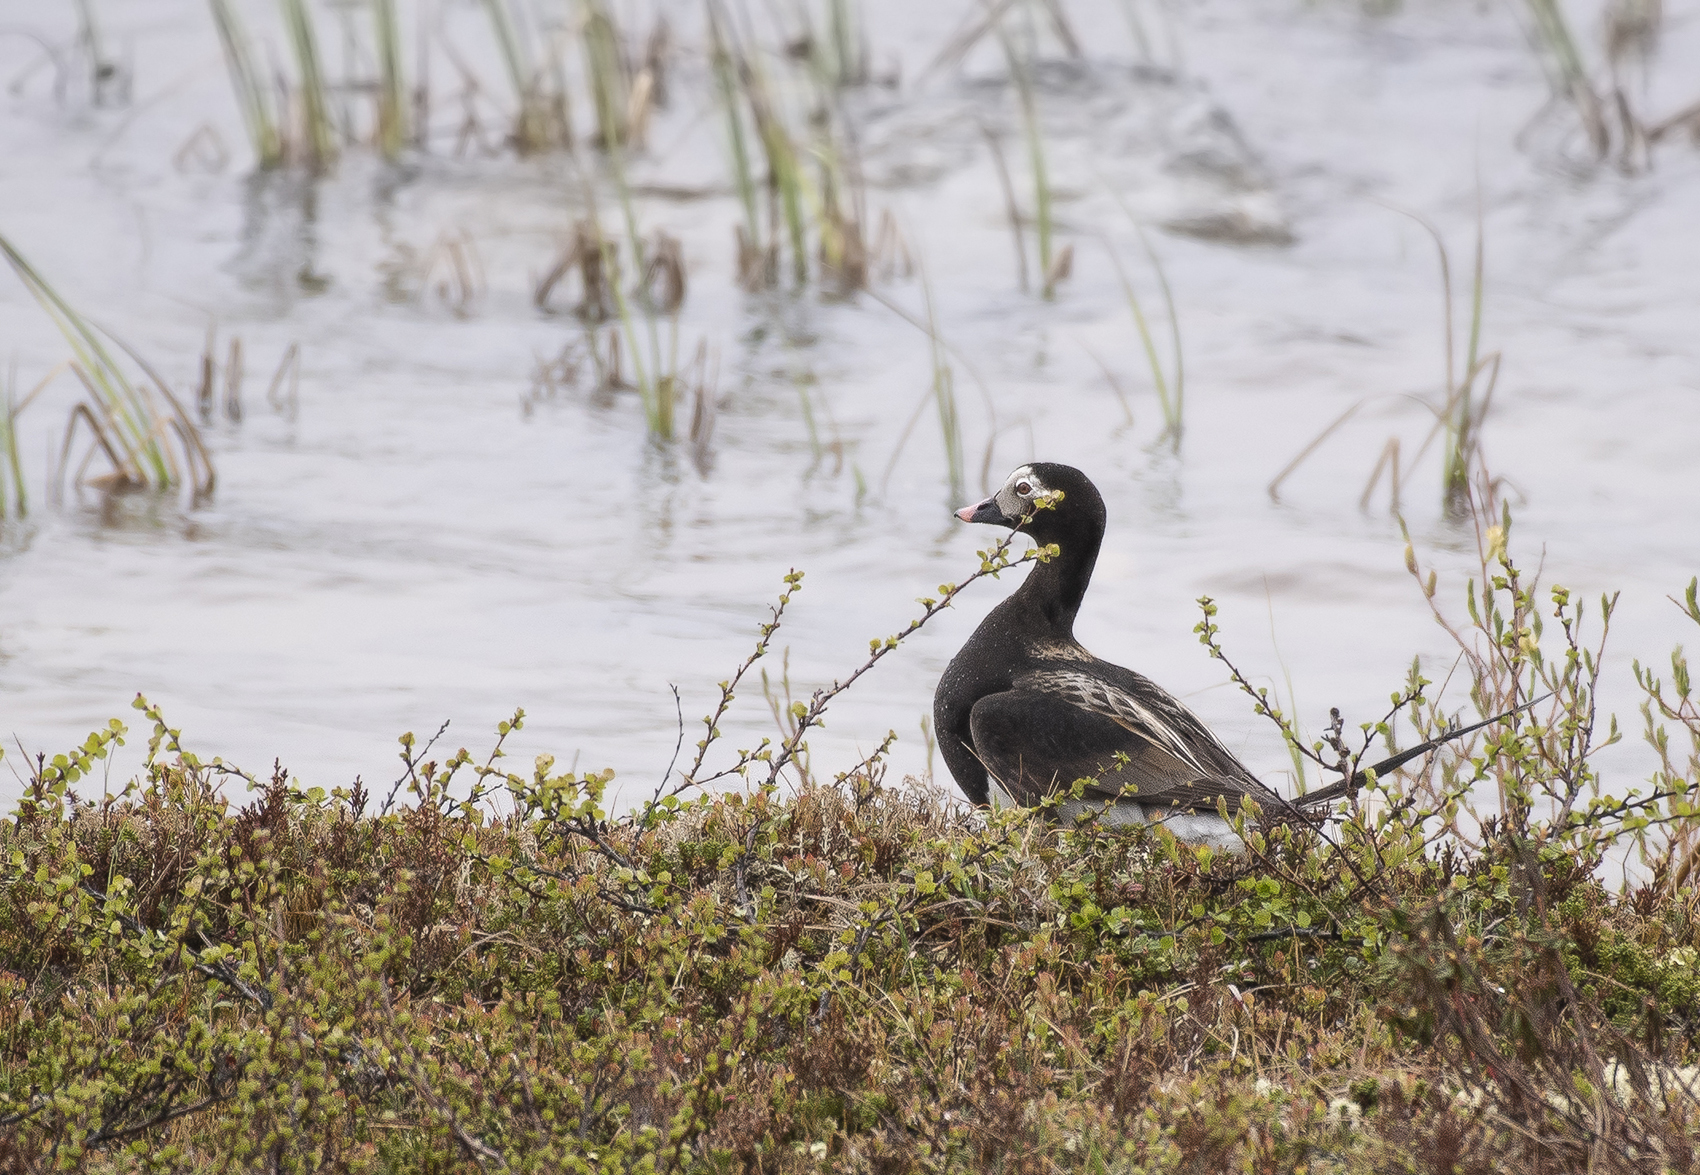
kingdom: Animalia
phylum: Chordata
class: Aves
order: Anseriformes
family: Anatidae
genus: Clangula
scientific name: Clangula hyemalis
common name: Long-tailed duck
